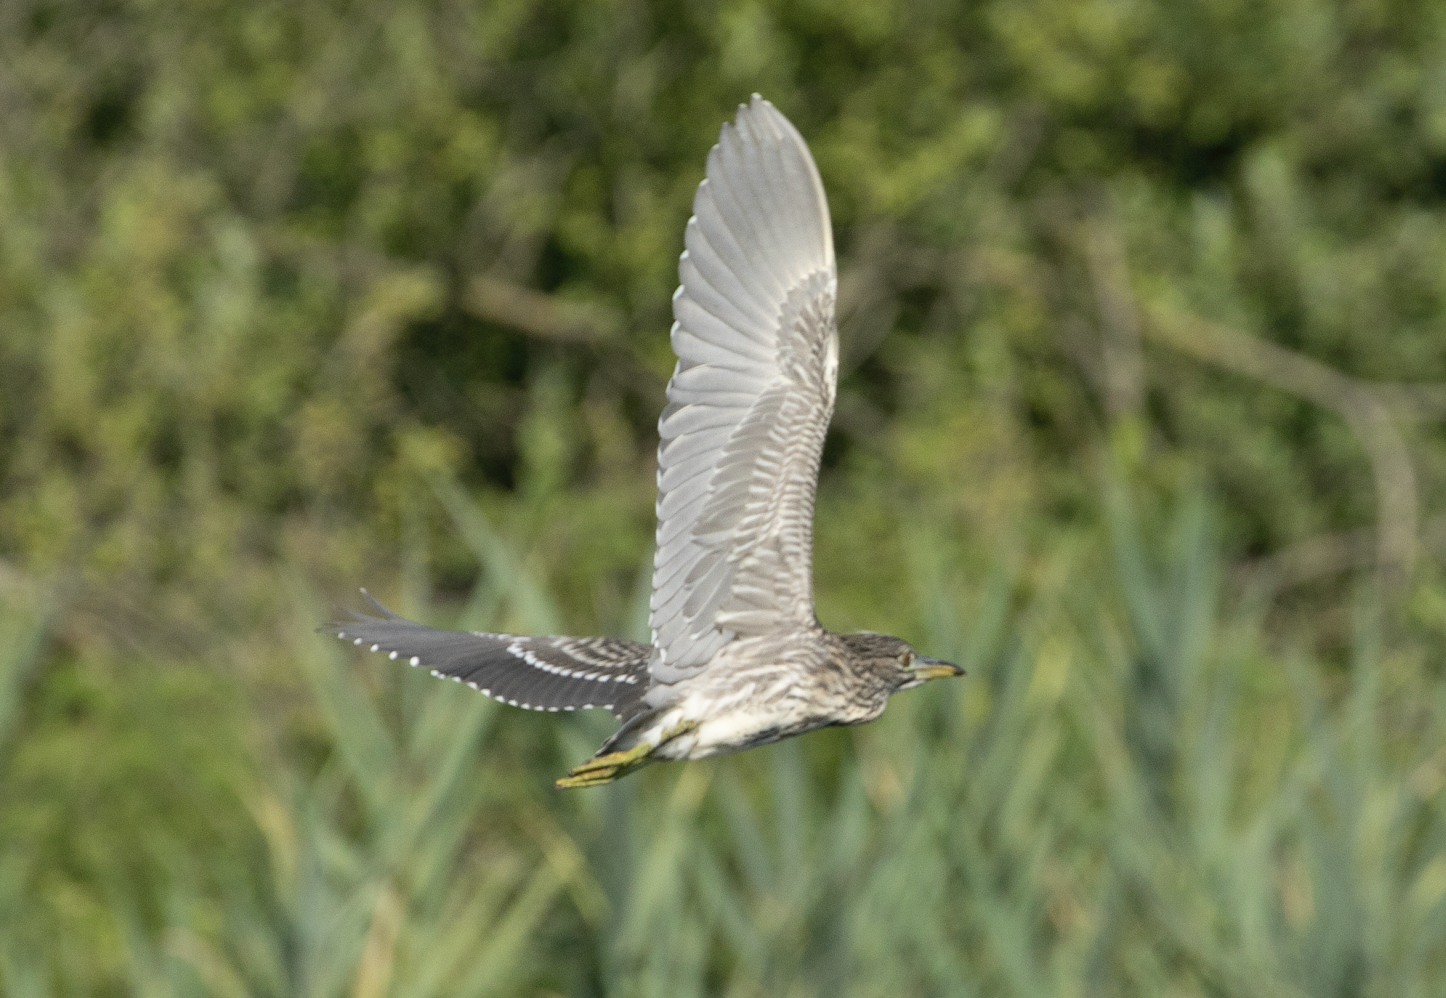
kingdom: Animalia
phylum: Chordata
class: Aves
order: Pelecaniformes
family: Ardeidae
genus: Nycticorax
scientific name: Nycticorax nycticorax
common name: Black-crowned night heron
